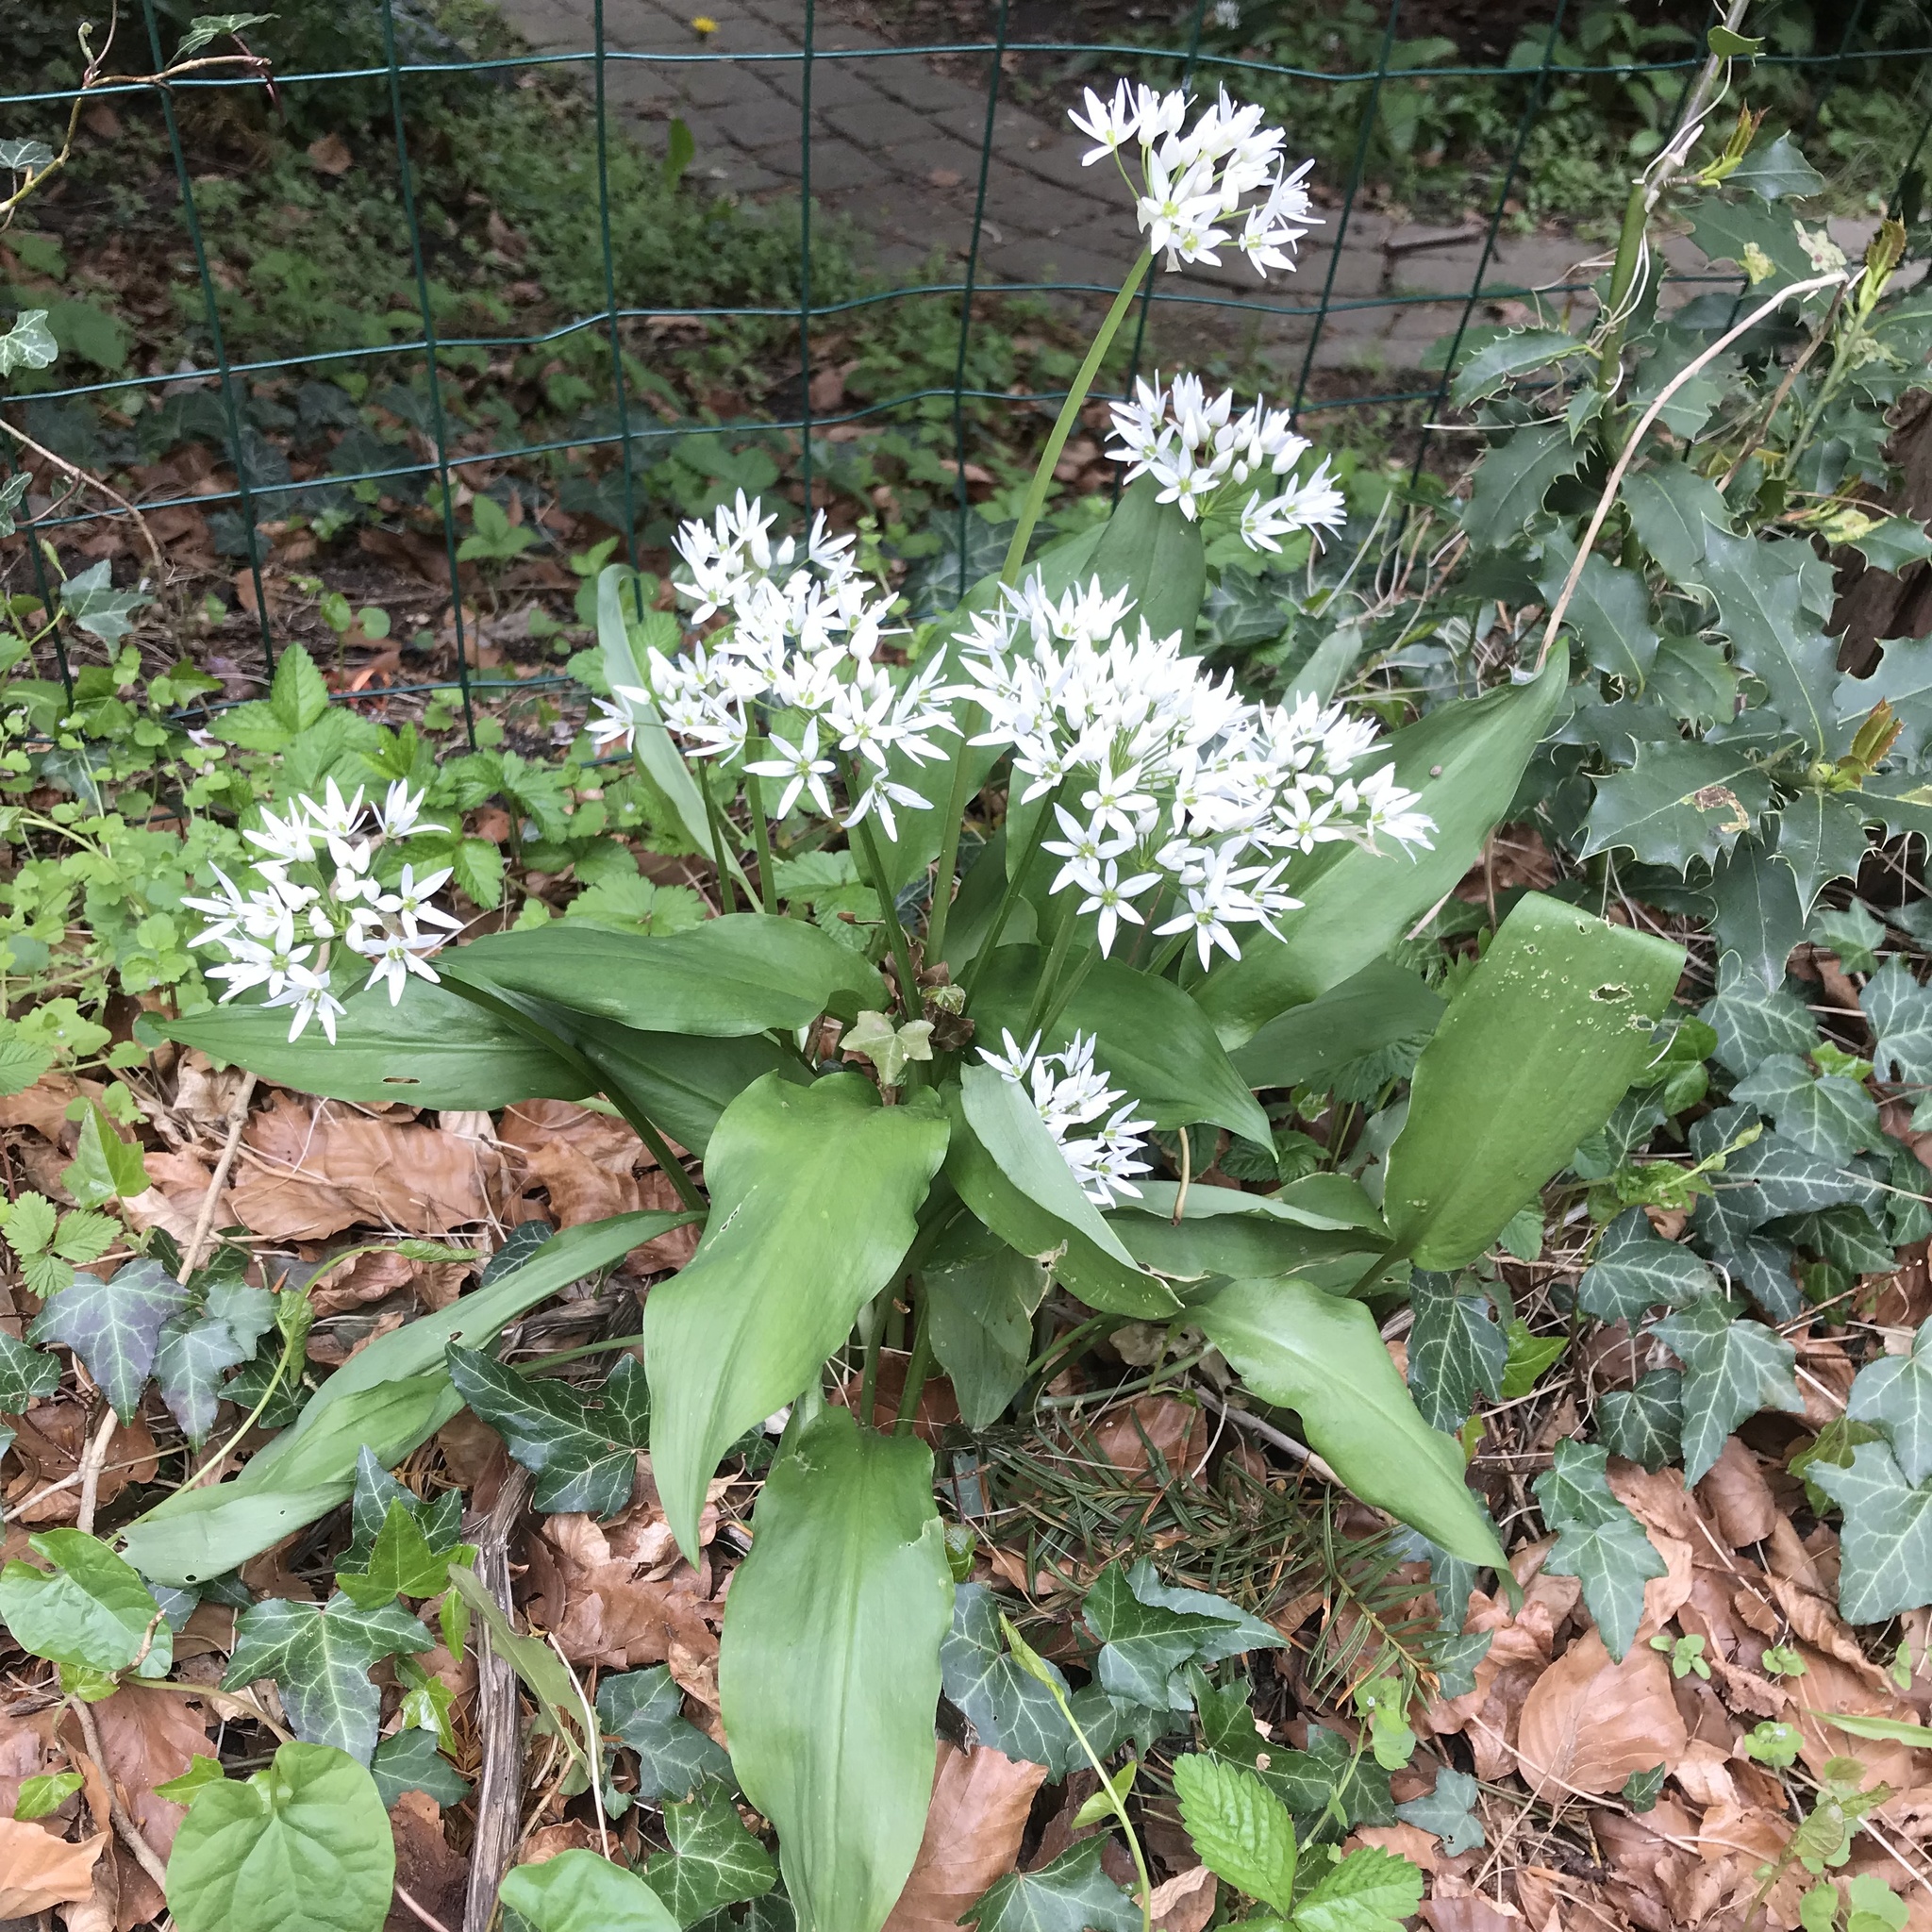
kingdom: Plantae
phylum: Tracheophyta
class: Liliopsida
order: Asparagales
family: Amaryllidaceae
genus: Allium
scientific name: Allium ursinum
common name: Ramsons
